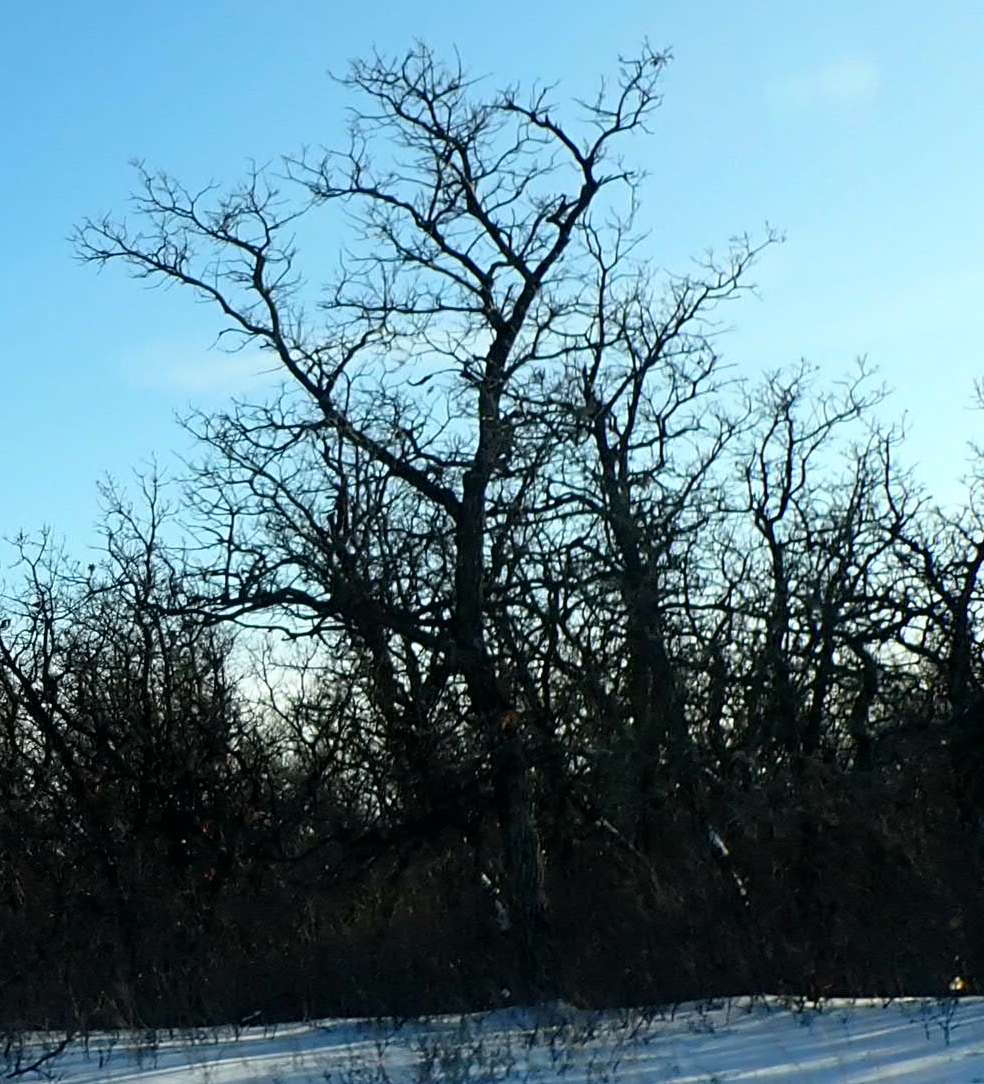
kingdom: Plantae
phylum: Tracheophyta
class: Magnoliopsida
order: Fagales
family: Fagaceae
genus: Quercus
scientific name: Quercus macrocarpa
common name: Bur oak
